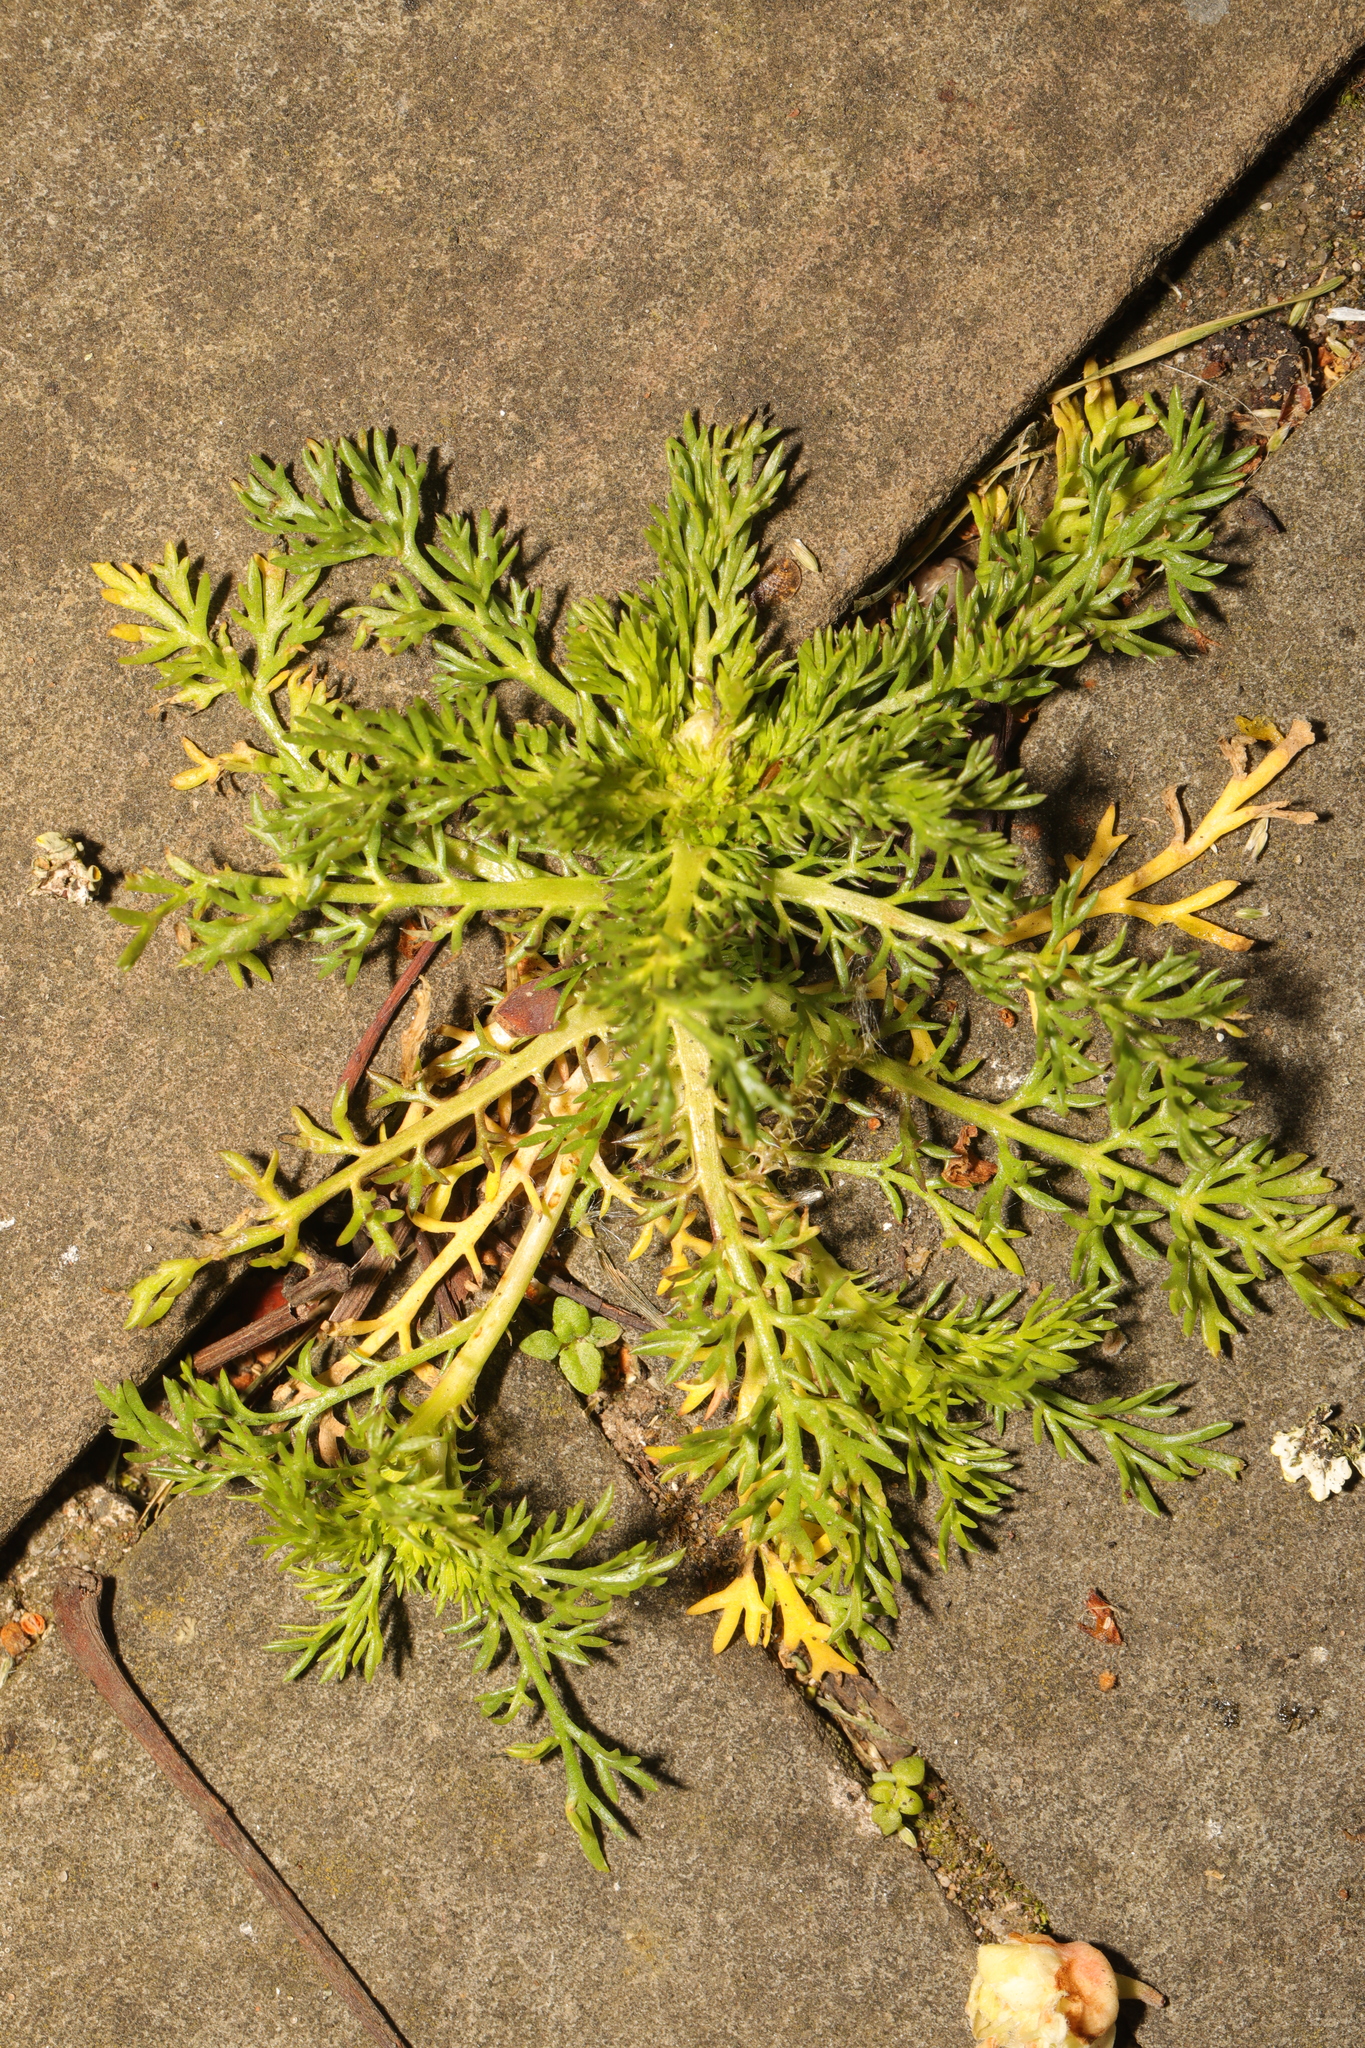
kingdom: Plantae
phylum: Tracheophyta
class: Magnoliopsida
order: Asterales
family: Asteraceae
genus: Matricaria
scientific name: Matricaria discoidea
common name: Disc mayweed
